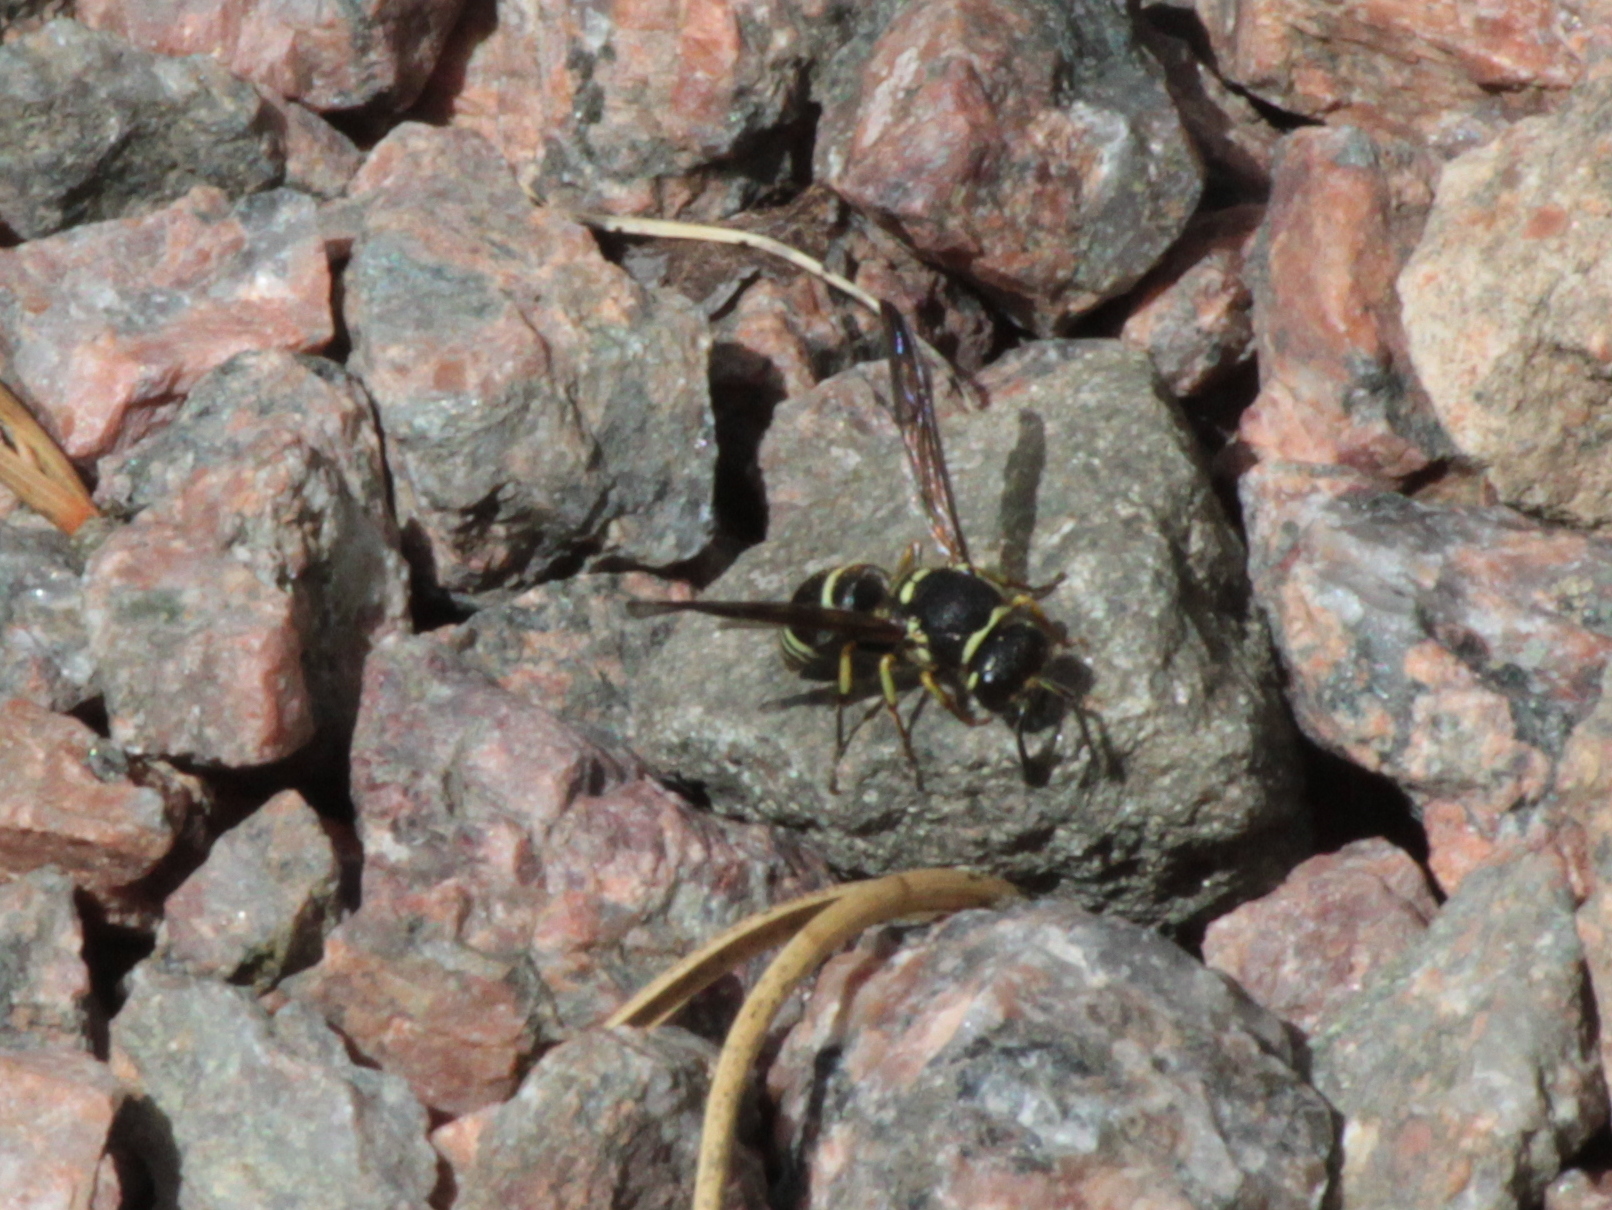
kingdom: Animalia
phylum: Arthropoda
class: Insecta
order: Hymenoptera
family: Vespidae
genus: Ancistrocerus
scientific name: Ancistrocerus catskill
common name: Vespid wasp
